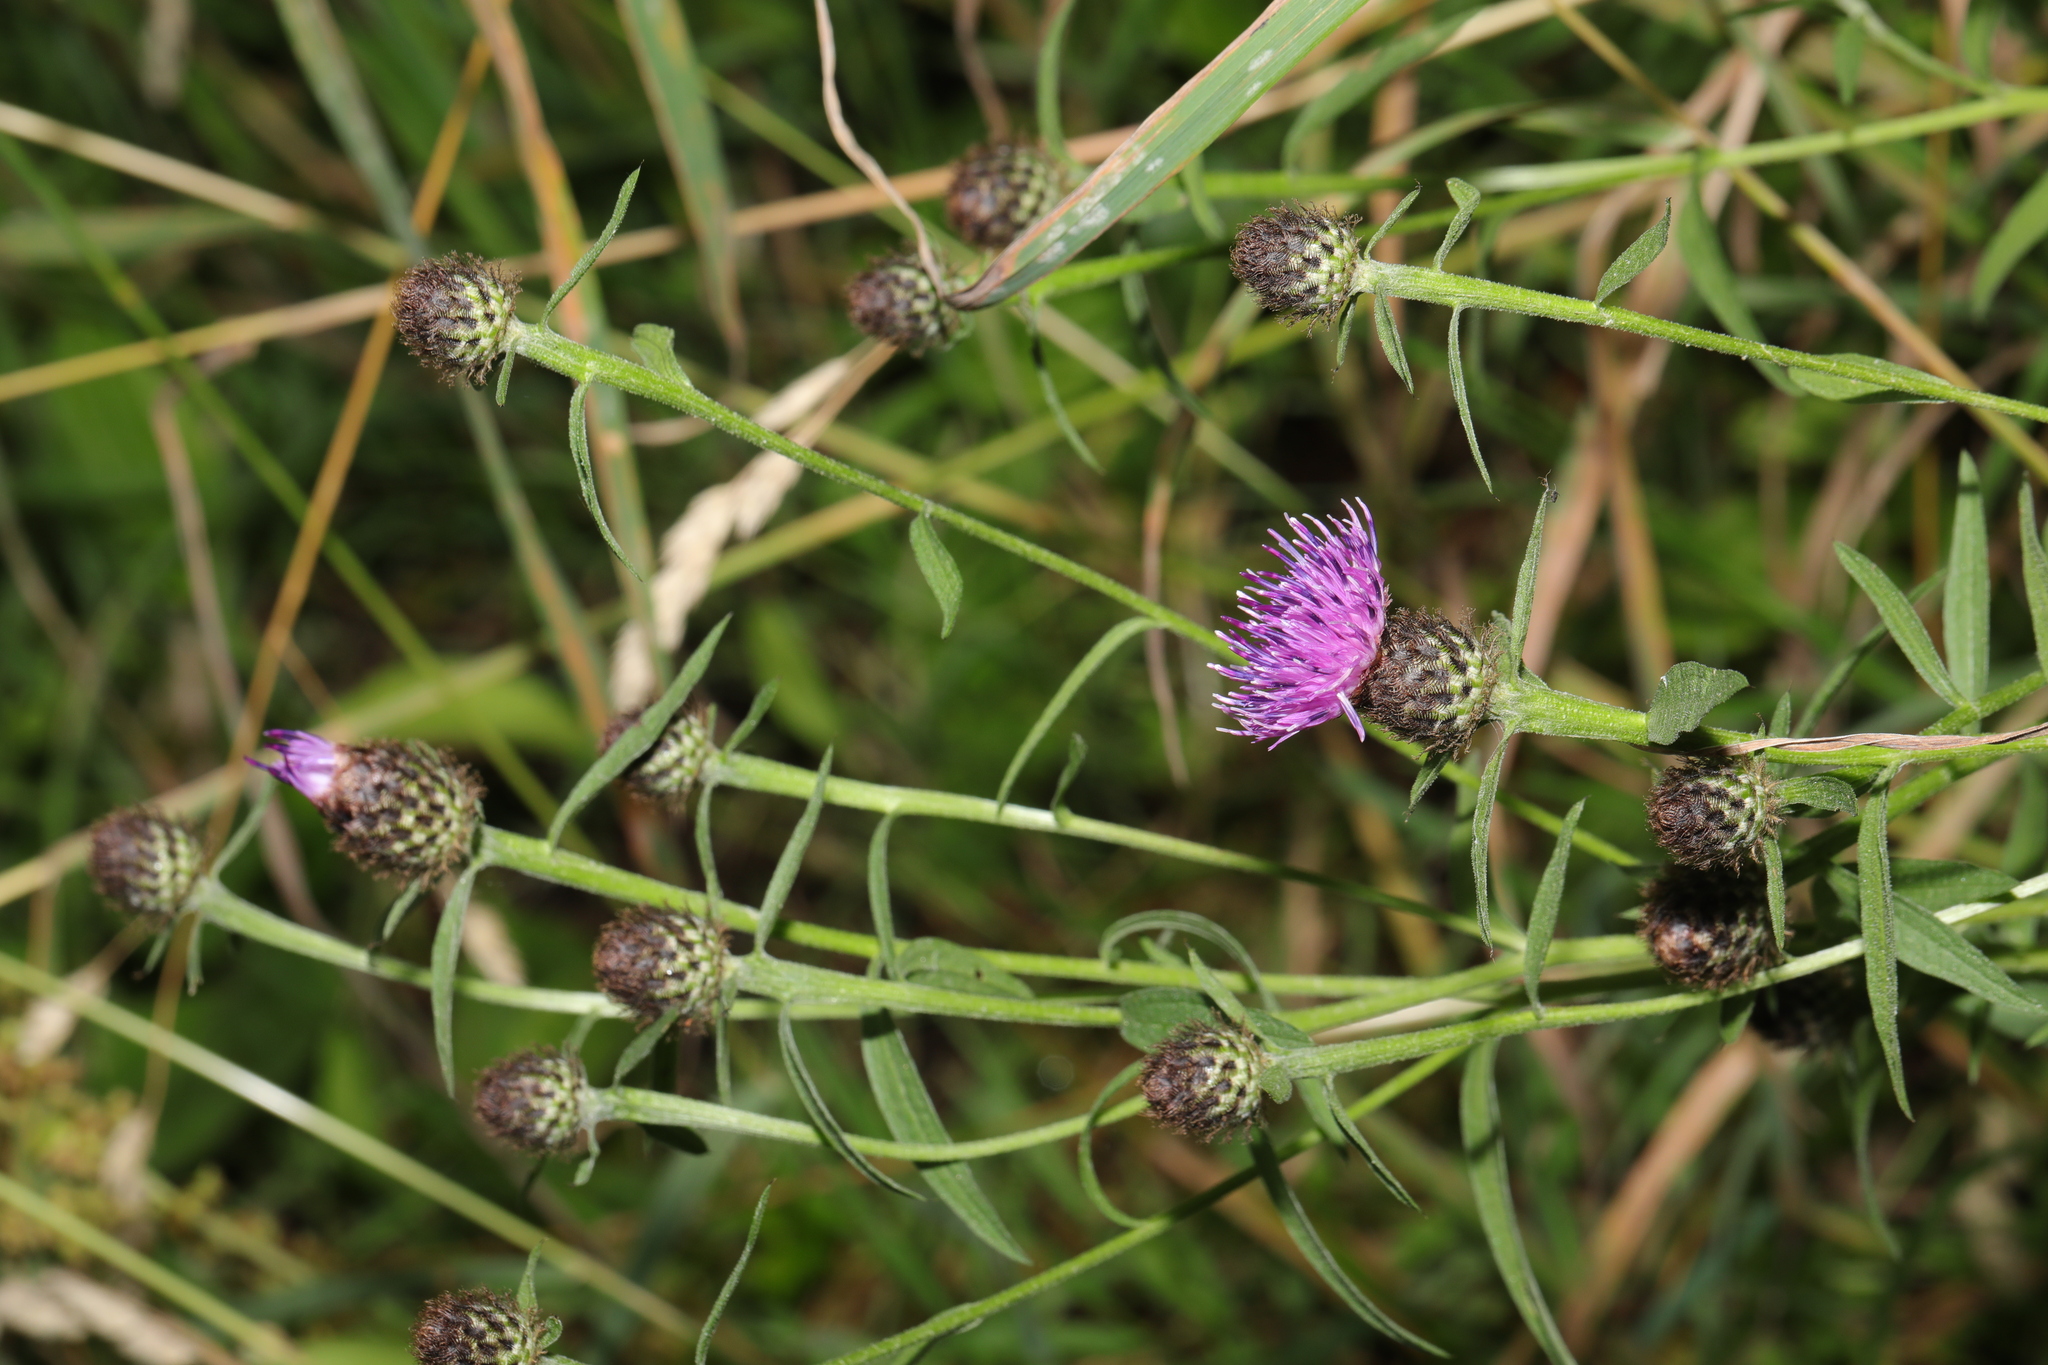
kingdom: Plantae
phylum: Tracheophyta
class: Magnoliopsida
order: Asterales
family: Asteraceae
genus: Centaurea
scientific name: Centaurea nigra
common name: Lesser knapweed
